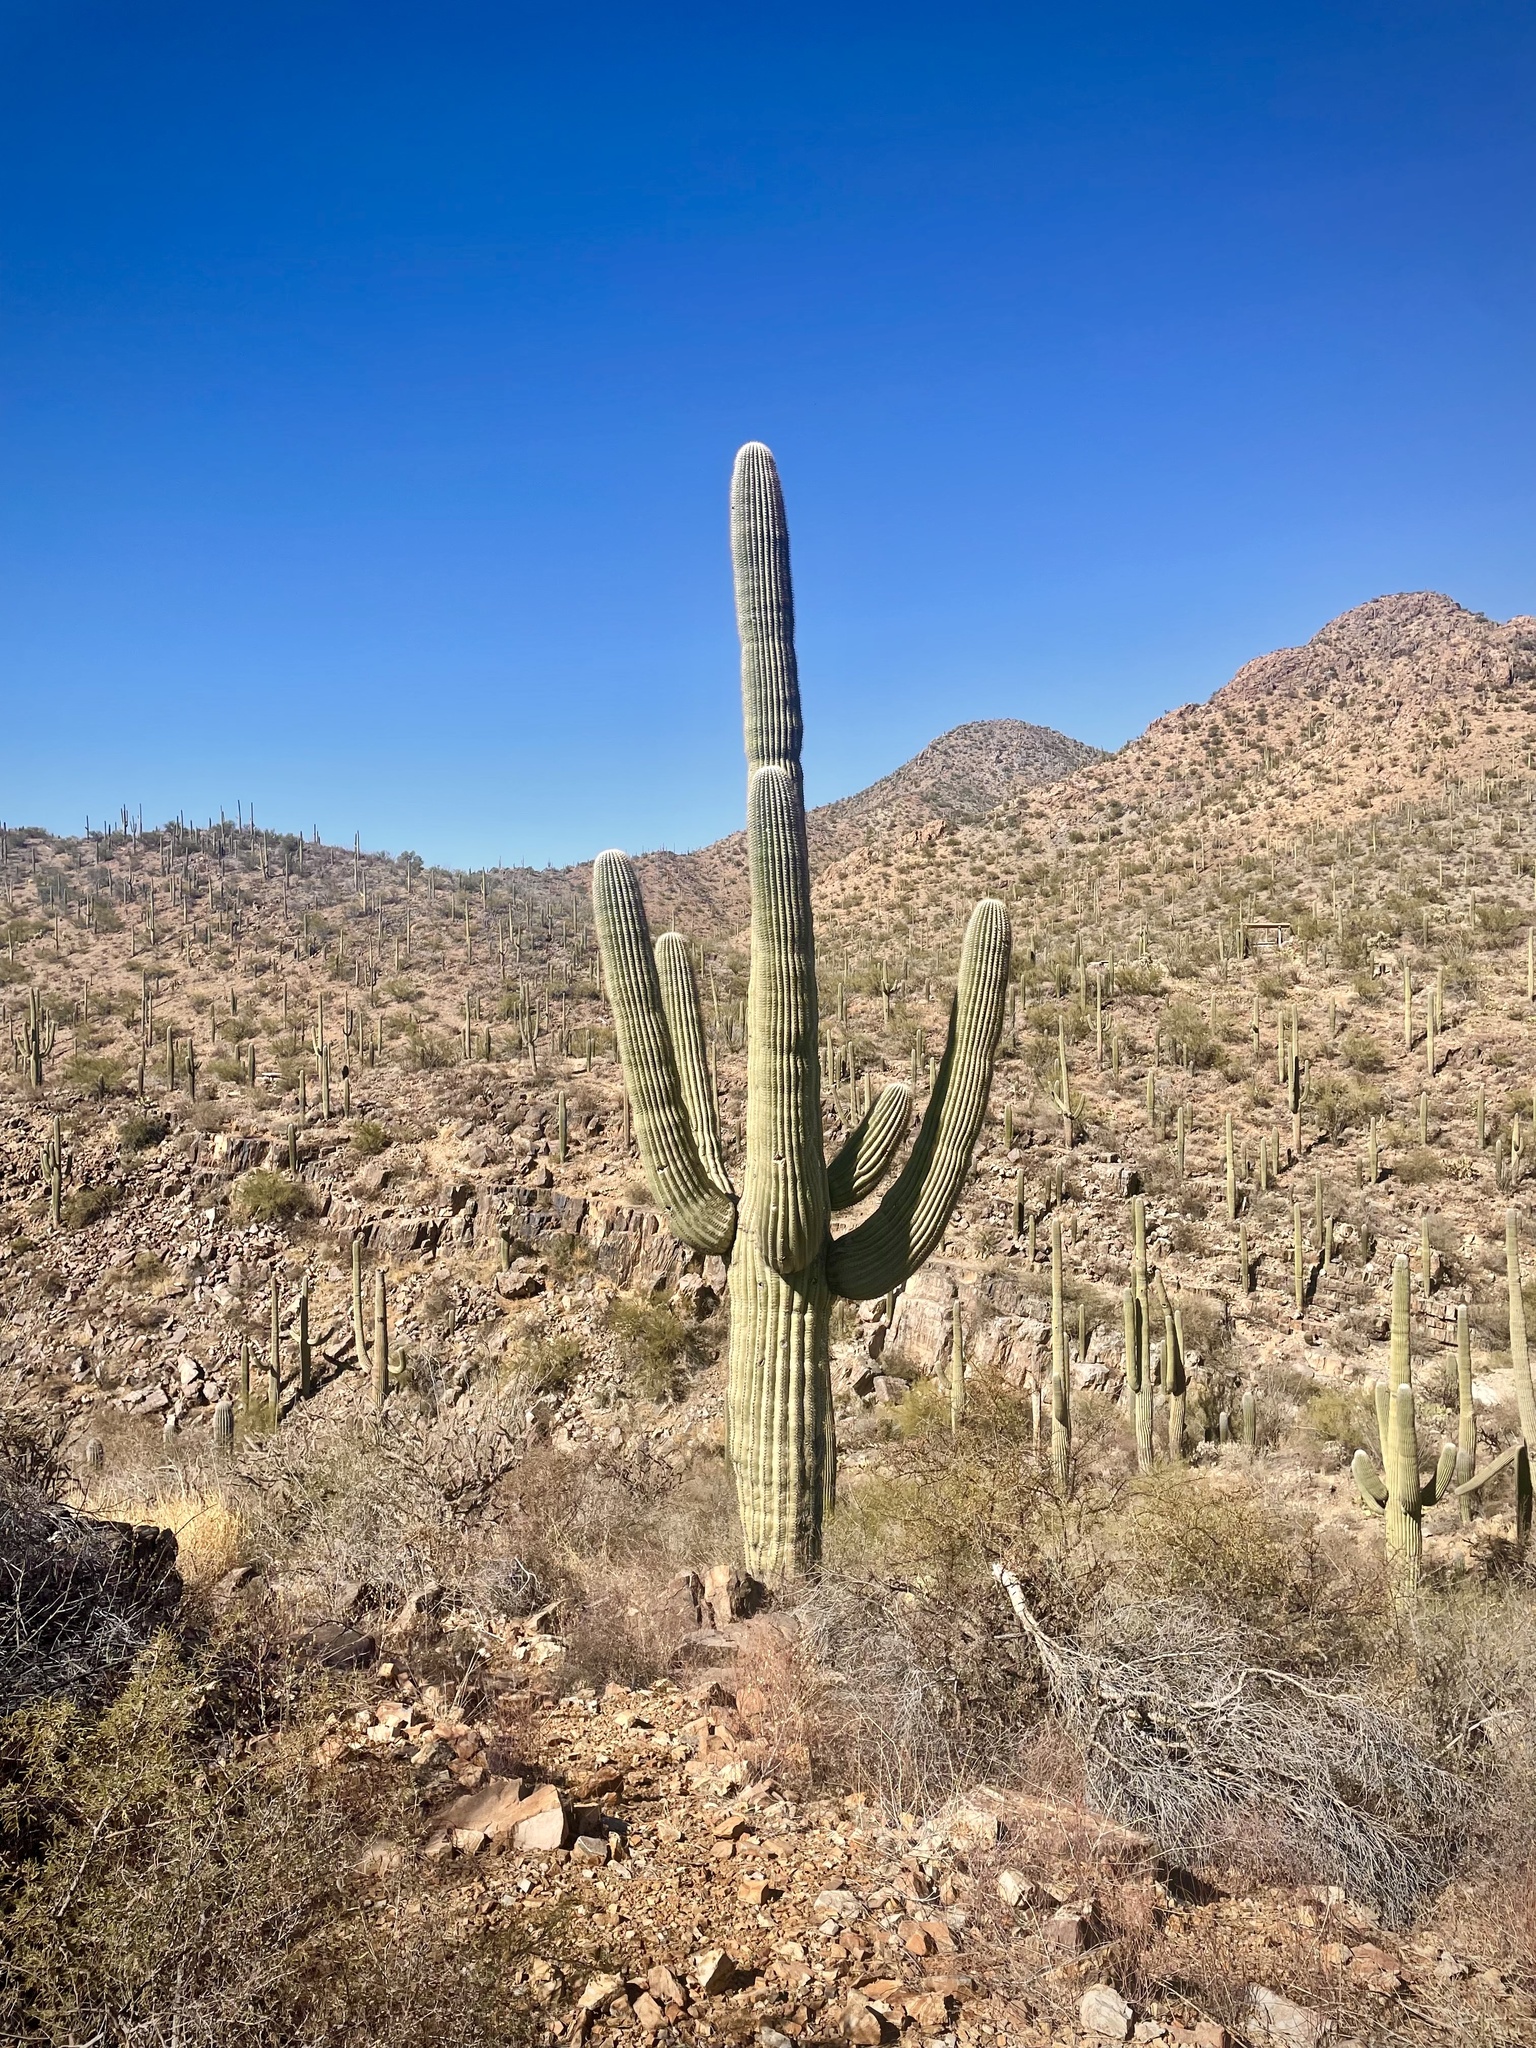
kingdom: Plantae
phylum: Tracheophyta
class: Magnoliopsida
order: Caryophyllales
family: Cactaceae
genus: Carnegiea
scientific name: Carnegiea gigantea
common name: Saguaro
